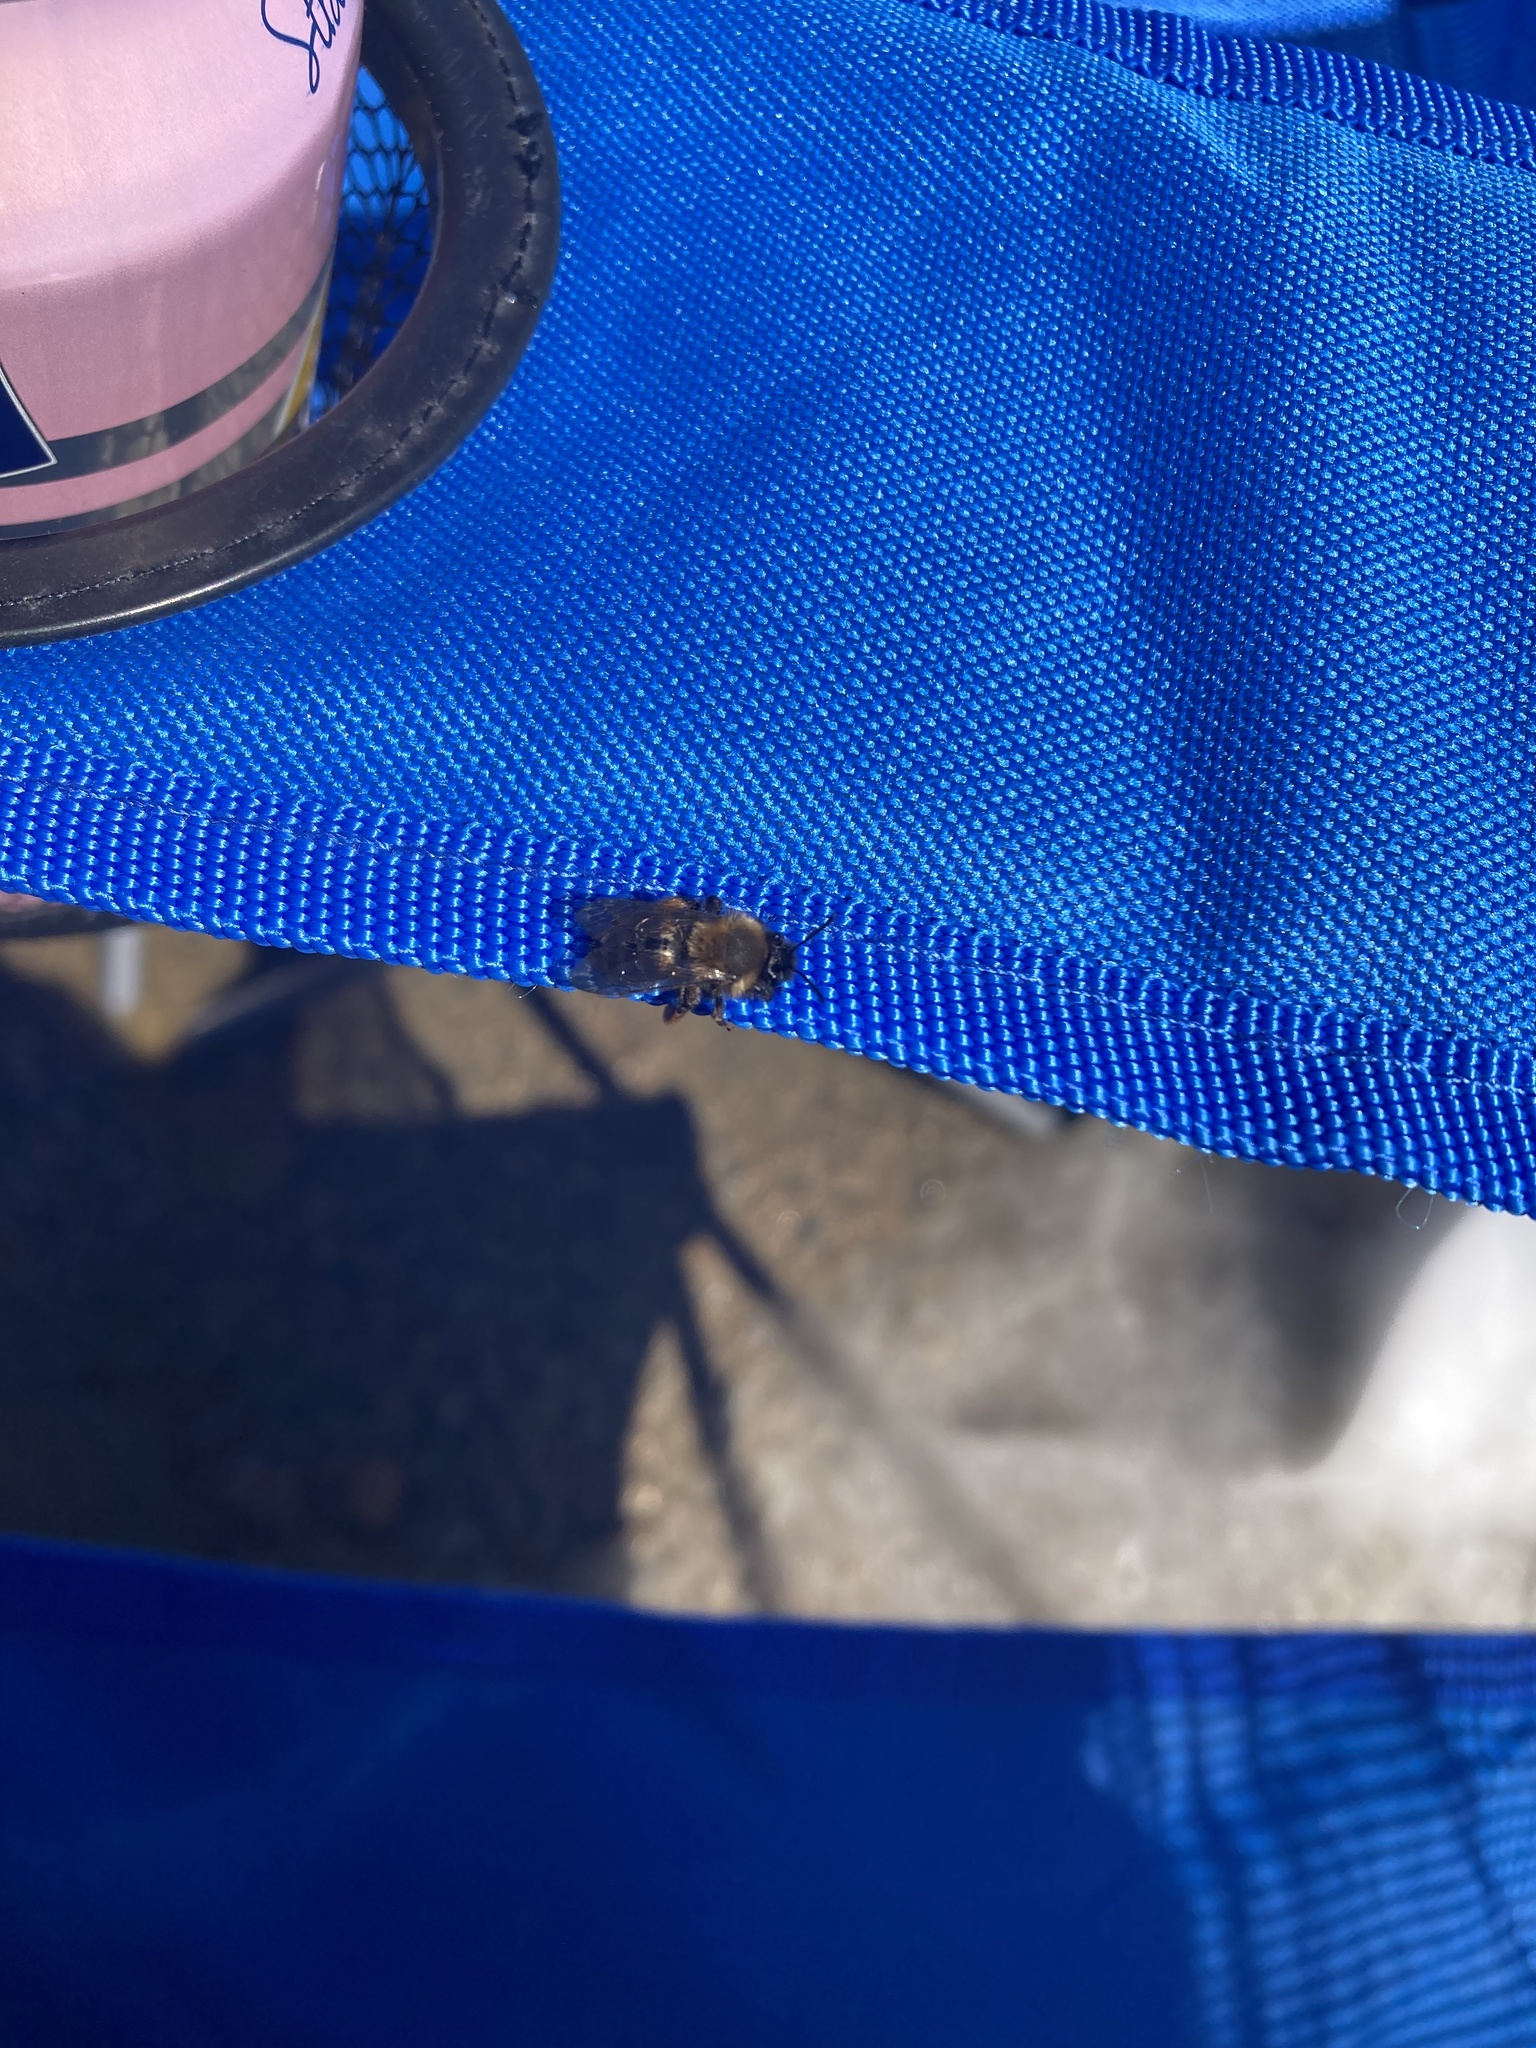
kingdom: Animalia
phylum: Arthropoda
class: Insecta
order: Hymenoptera
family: Andrenidae
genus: Andrena
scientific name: Andrena clarkella
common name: Clarke's mining bee
